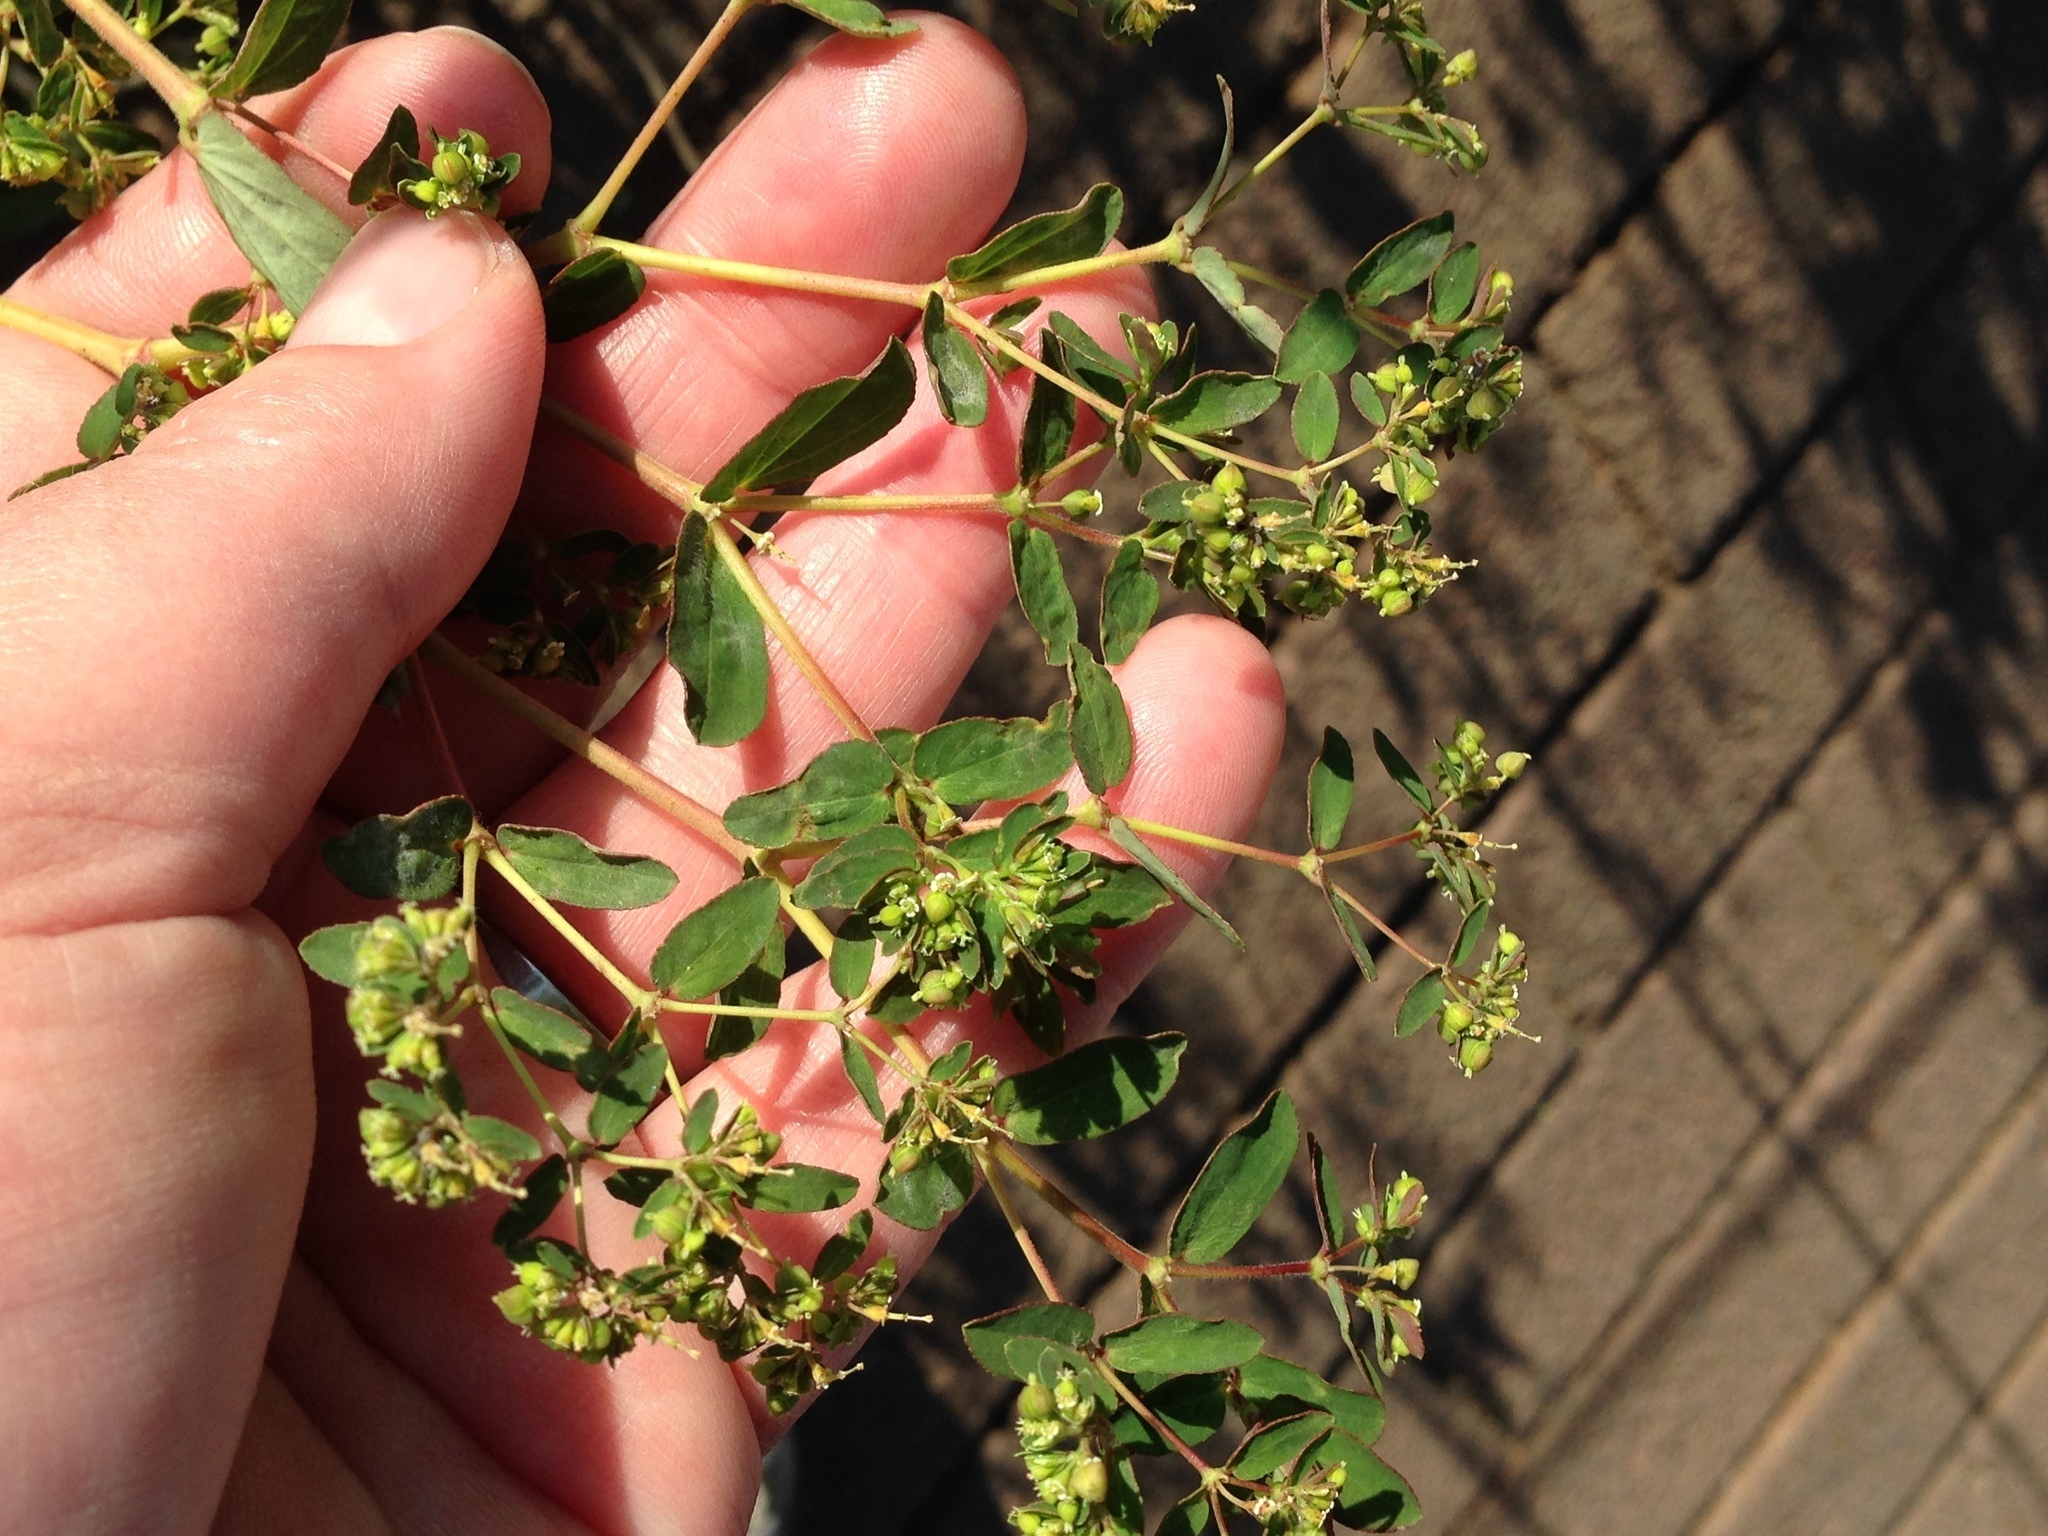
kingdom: Plantae
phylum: Tracheophyta
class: Magnoliopsida
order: Malpighiales
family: Euphorbiaceae
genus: Euphorbia
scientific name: Euphorbia nutans
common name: Eyebane
